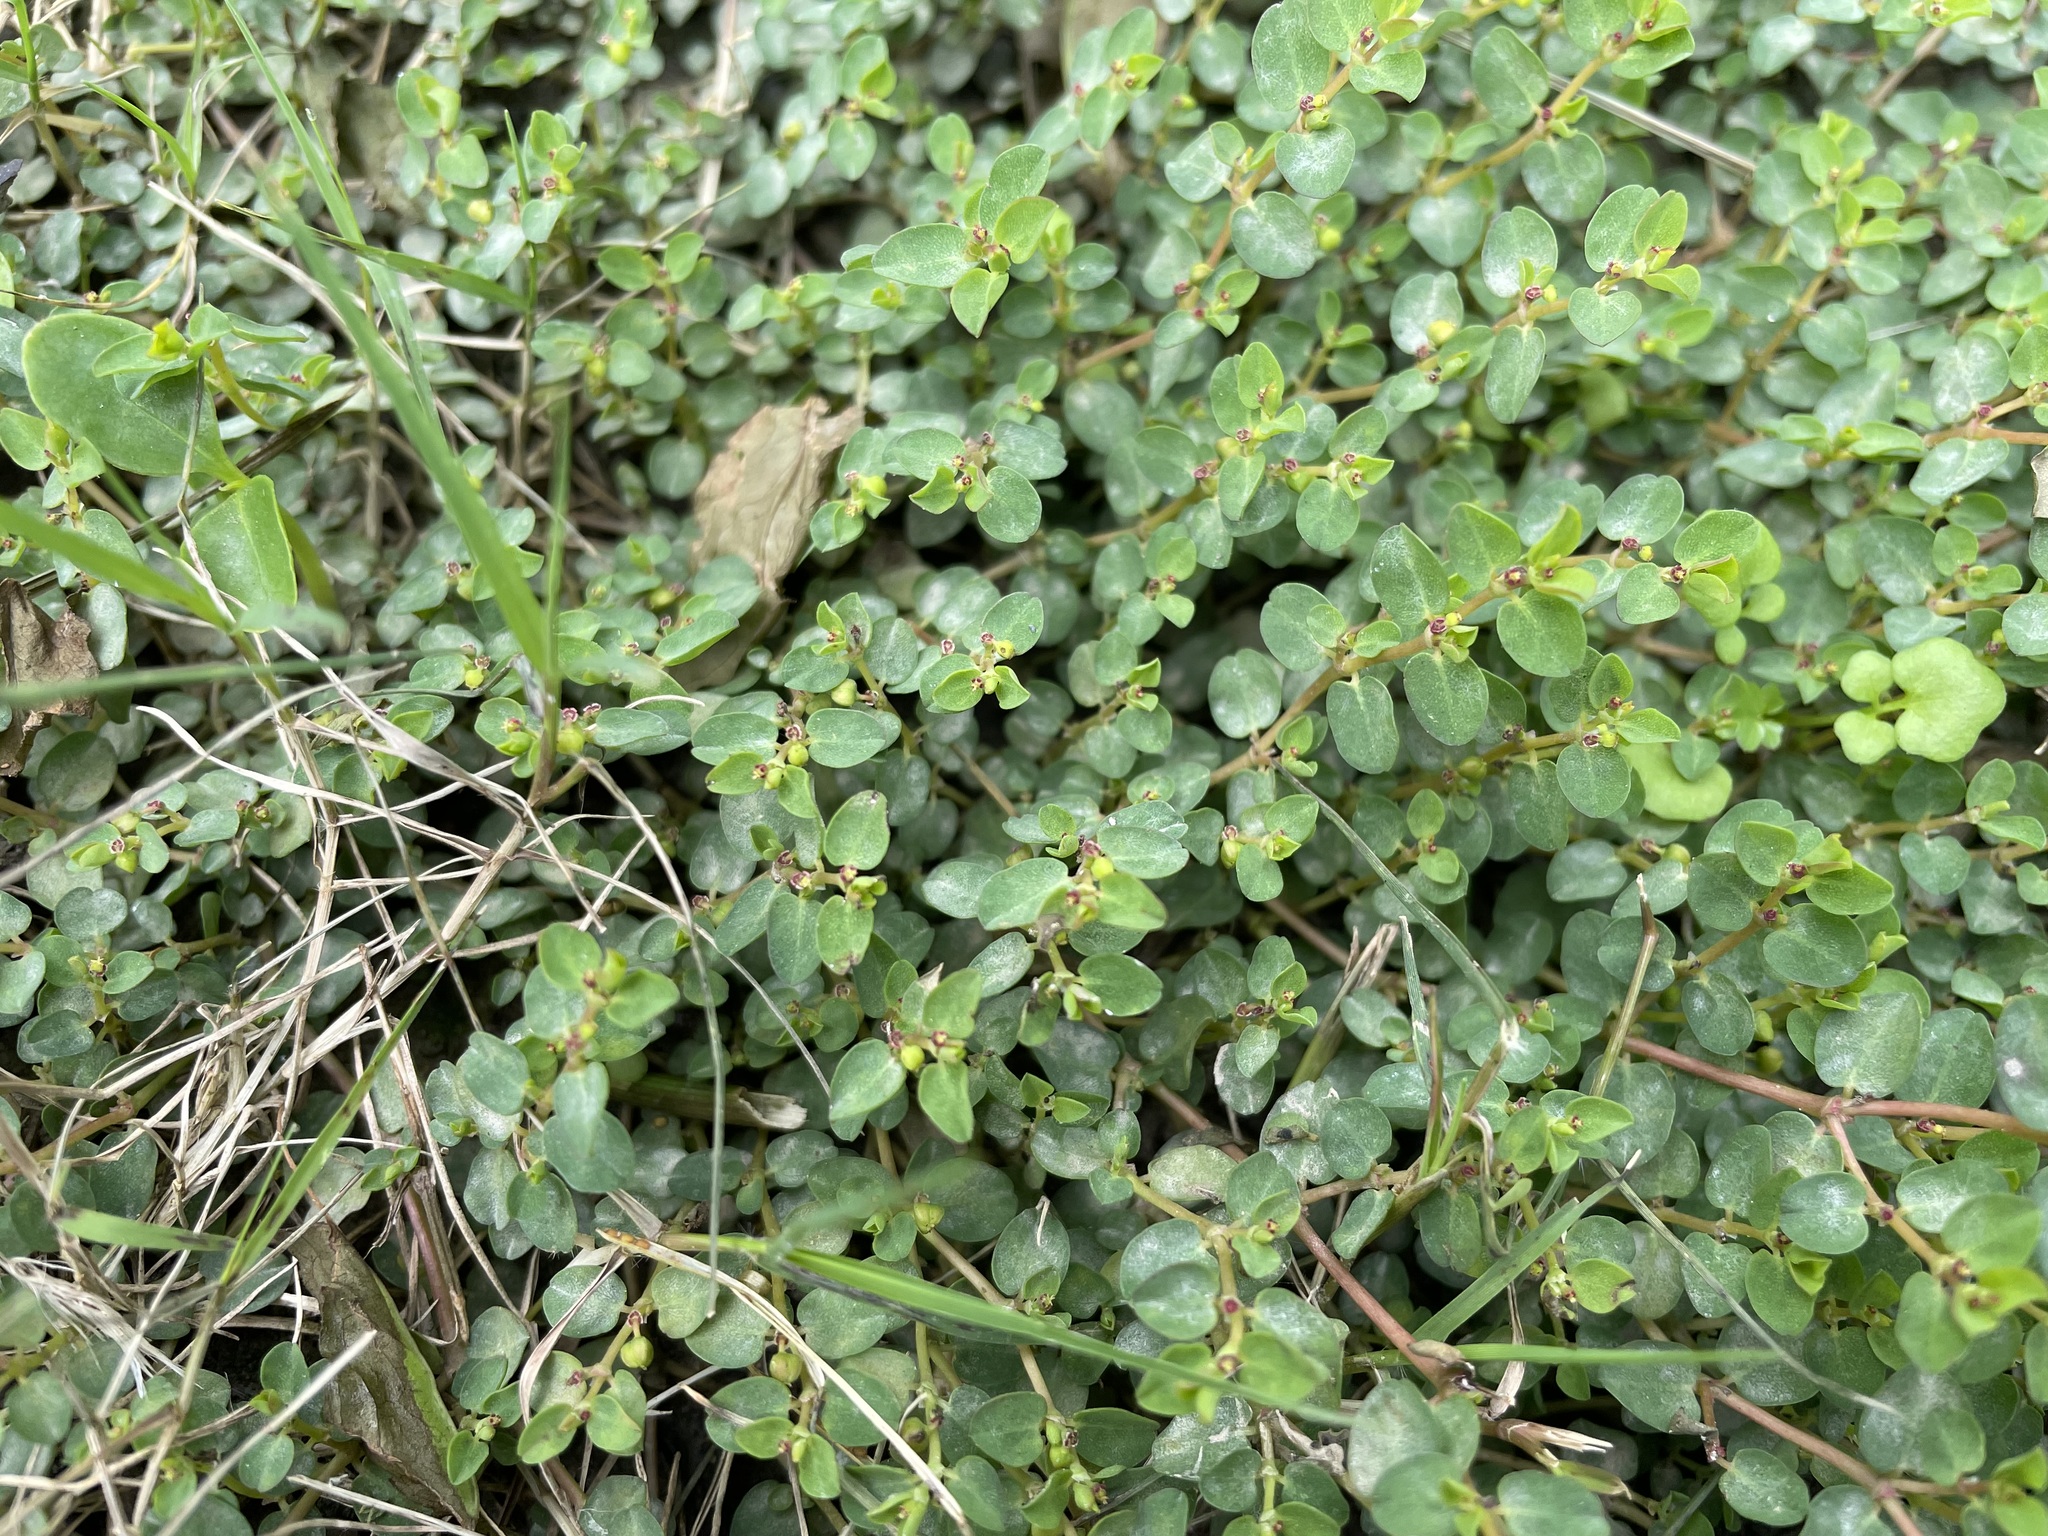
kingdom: Plantae
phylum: Tracheophyta
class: Magnoliopsida
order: Malpighiales
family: Euphorbiaceae
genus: Euphorbia
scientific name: Euphorbia serpens
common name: Matted sandmat
